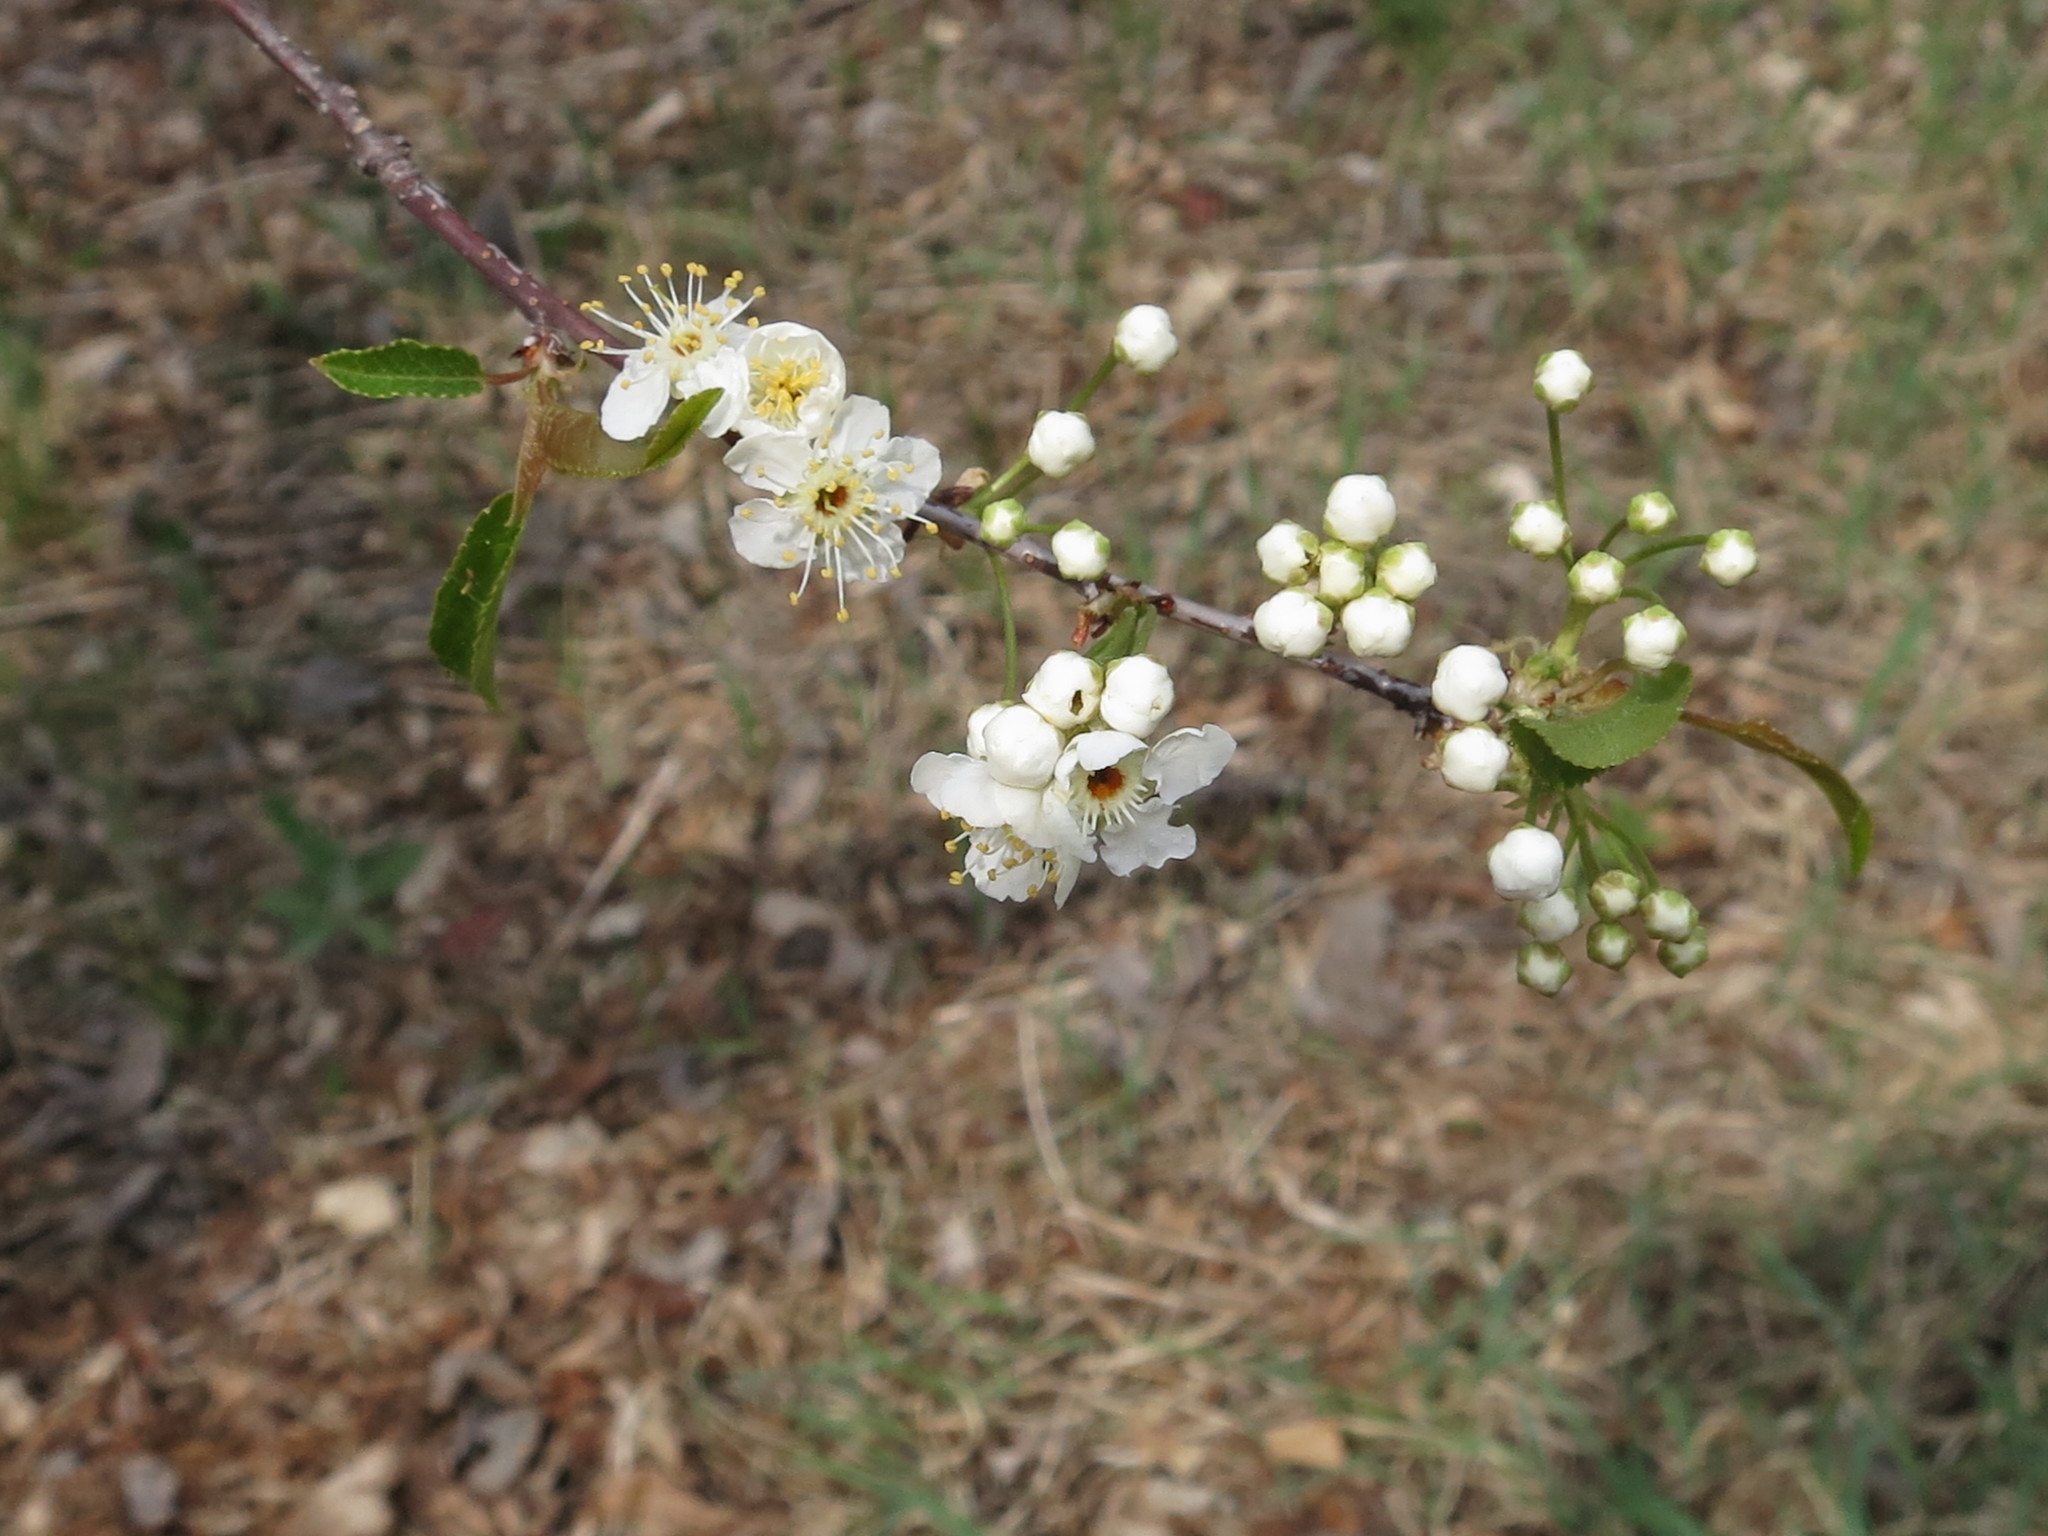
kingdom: Plantae
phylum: Tracheophyta
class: Magnoliopsida
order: Rosales
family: Rosaceae
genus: Prunus
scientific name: Prunus maximowiczii
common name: Korean cherry
